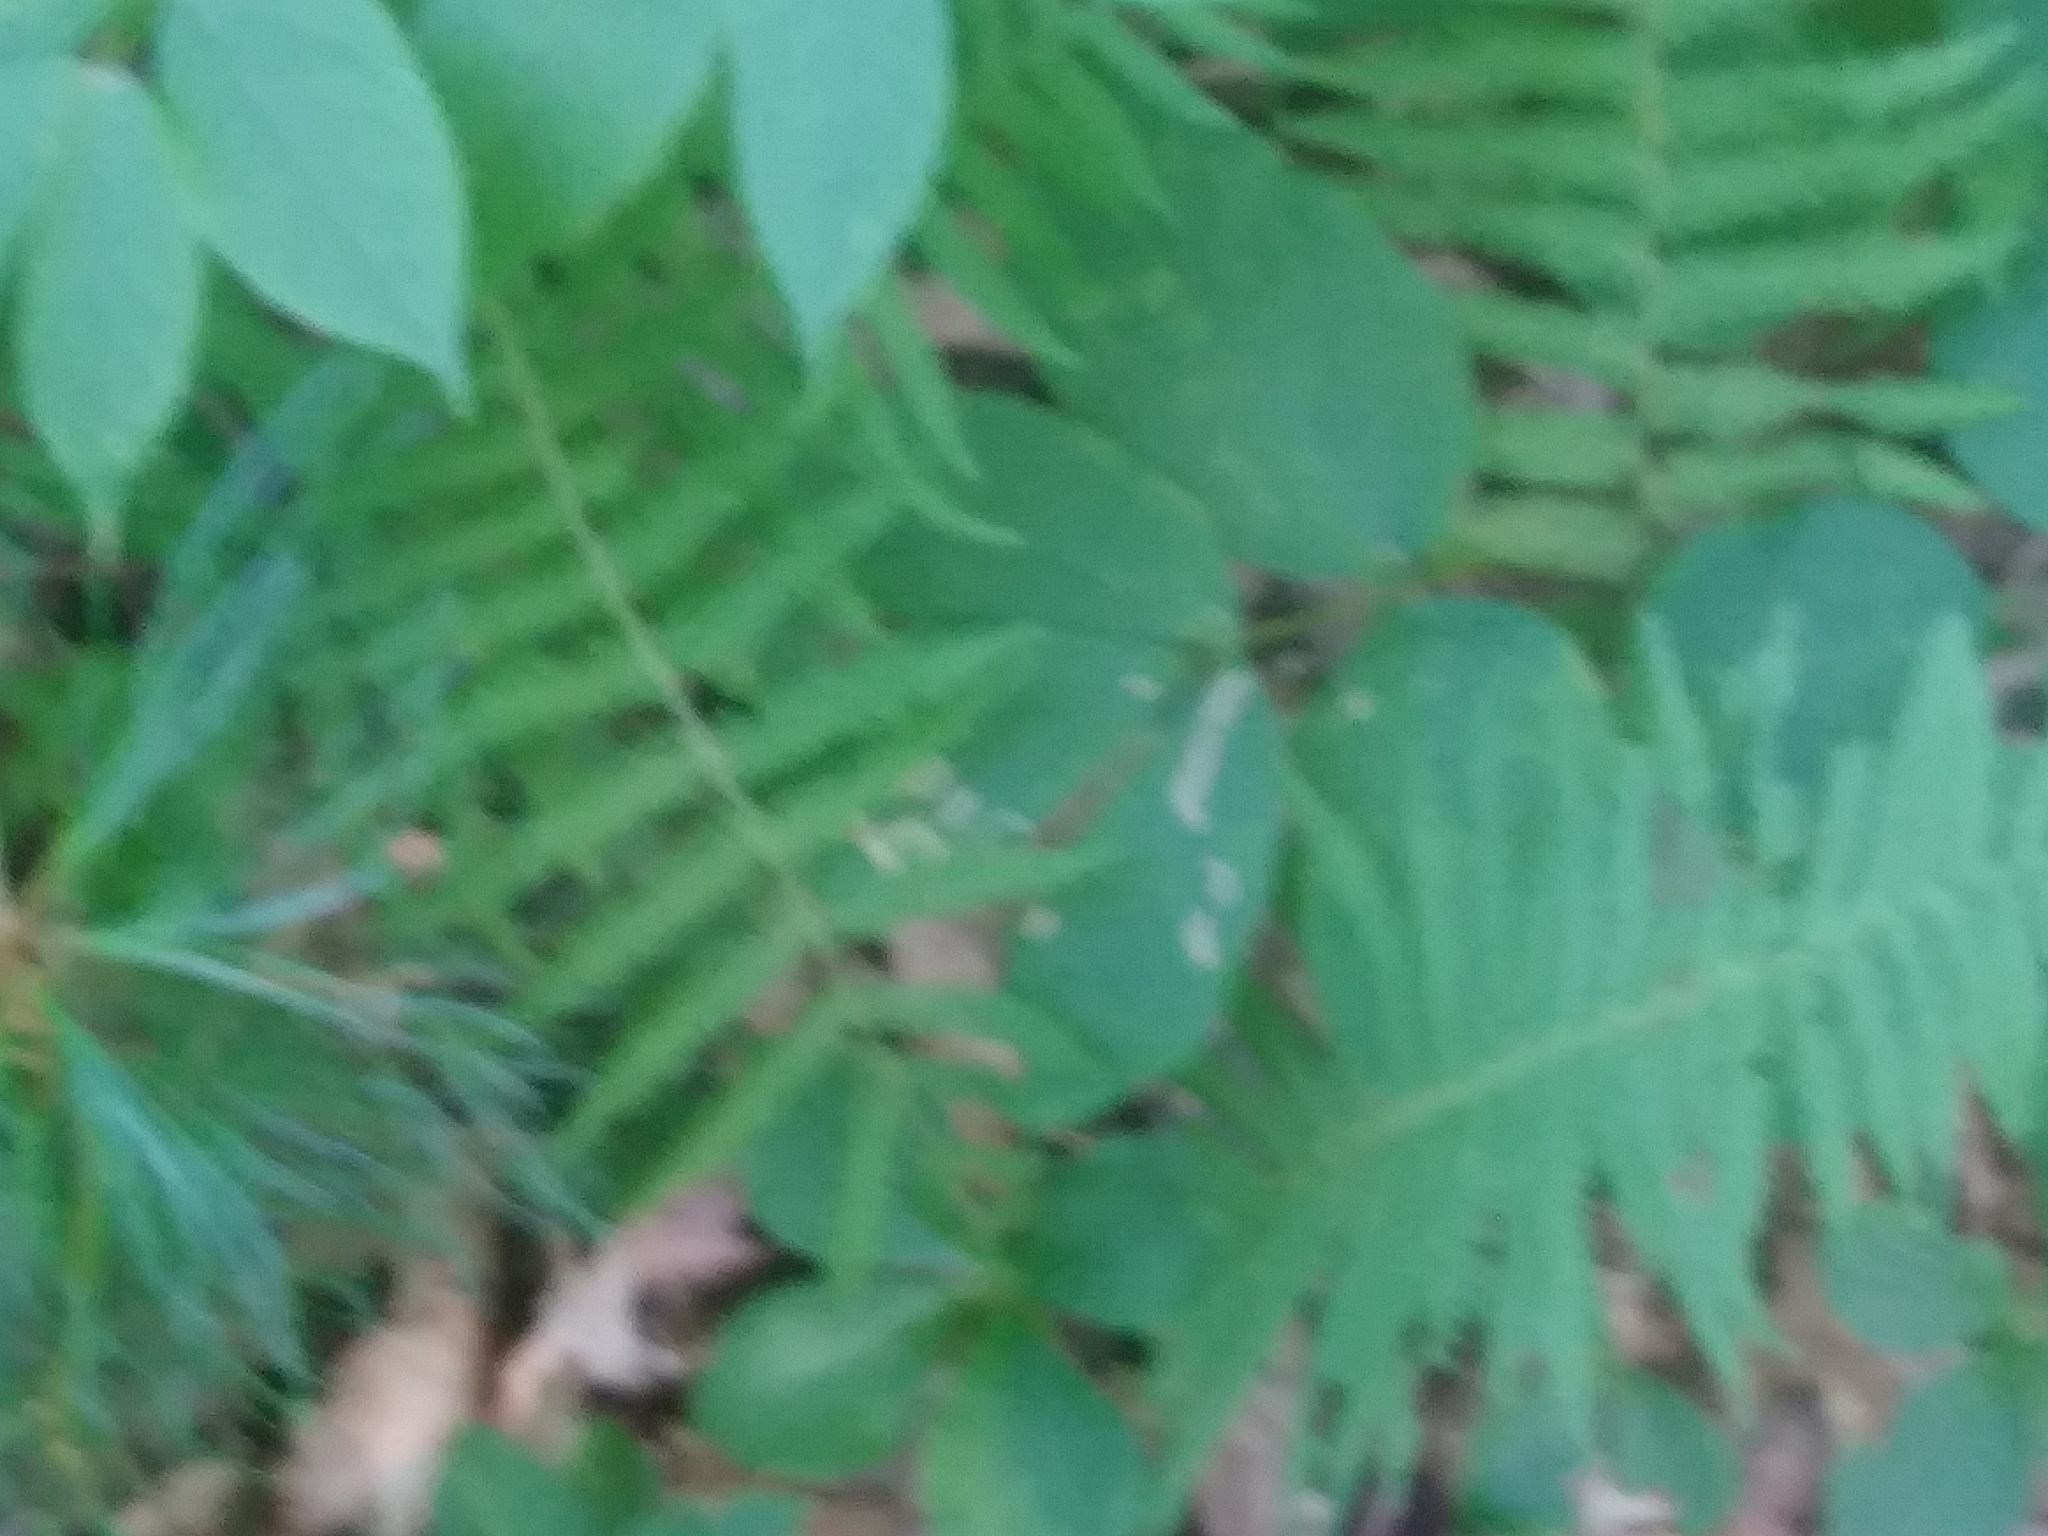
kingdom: Plantae
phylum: Tracheophyta
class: Polypodiopsida
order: Polypodiales
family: Thelypteridaceae
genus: Amauropelta
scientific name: Amauropelta noveboracensis
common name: New york fern
